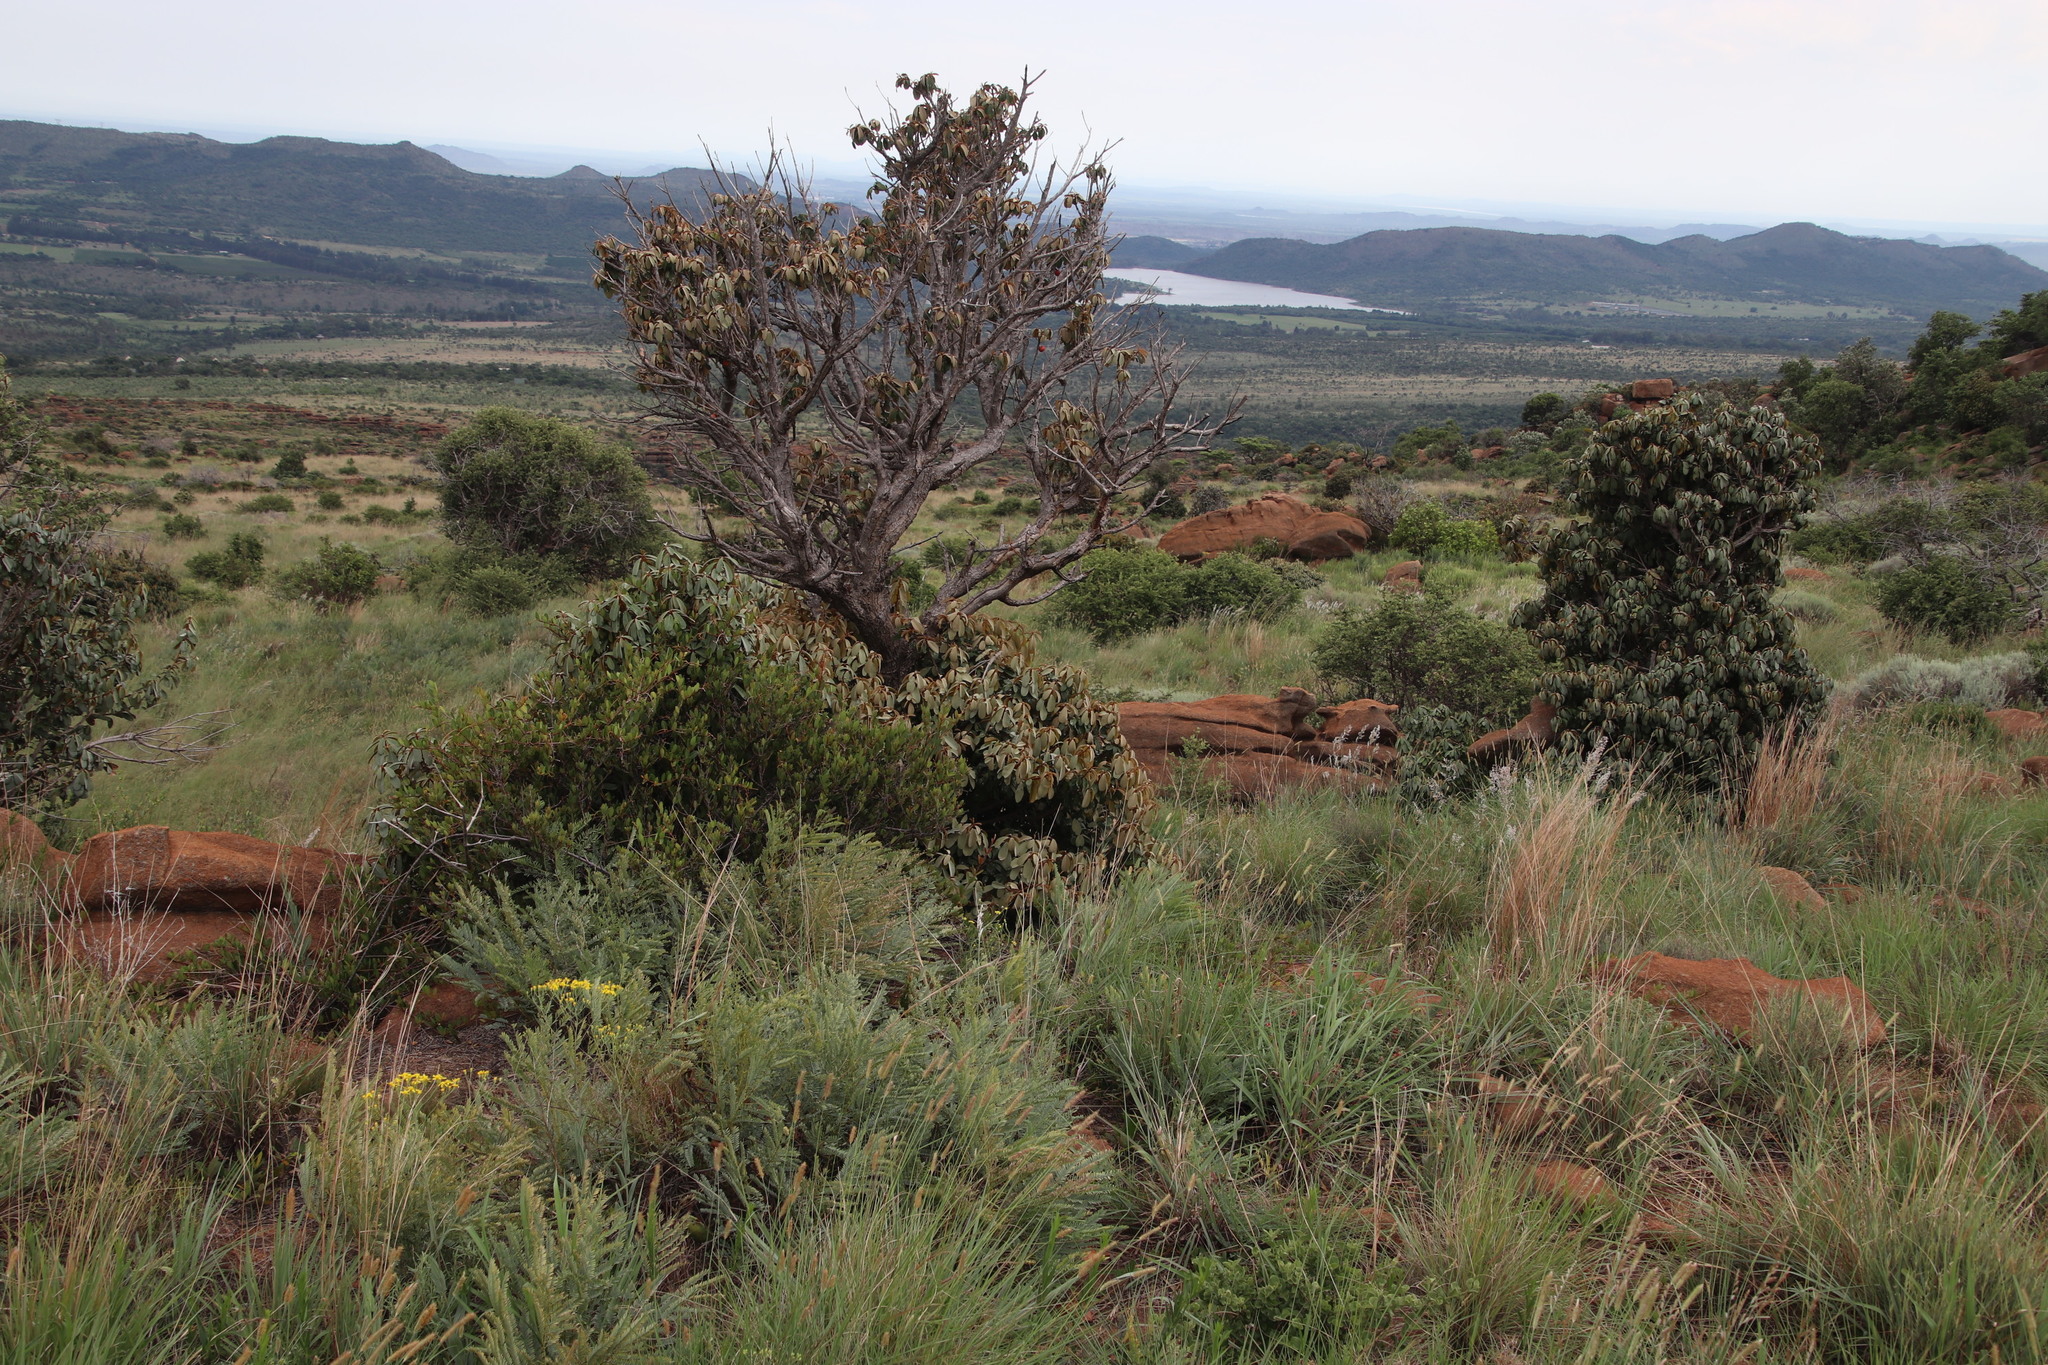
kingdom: Plantae
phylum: Tracheophyta
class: Magnoliopsida
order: Ericales
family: Sapotaceae
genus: Englerophytum
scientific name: Englerophytum magalismontanum
